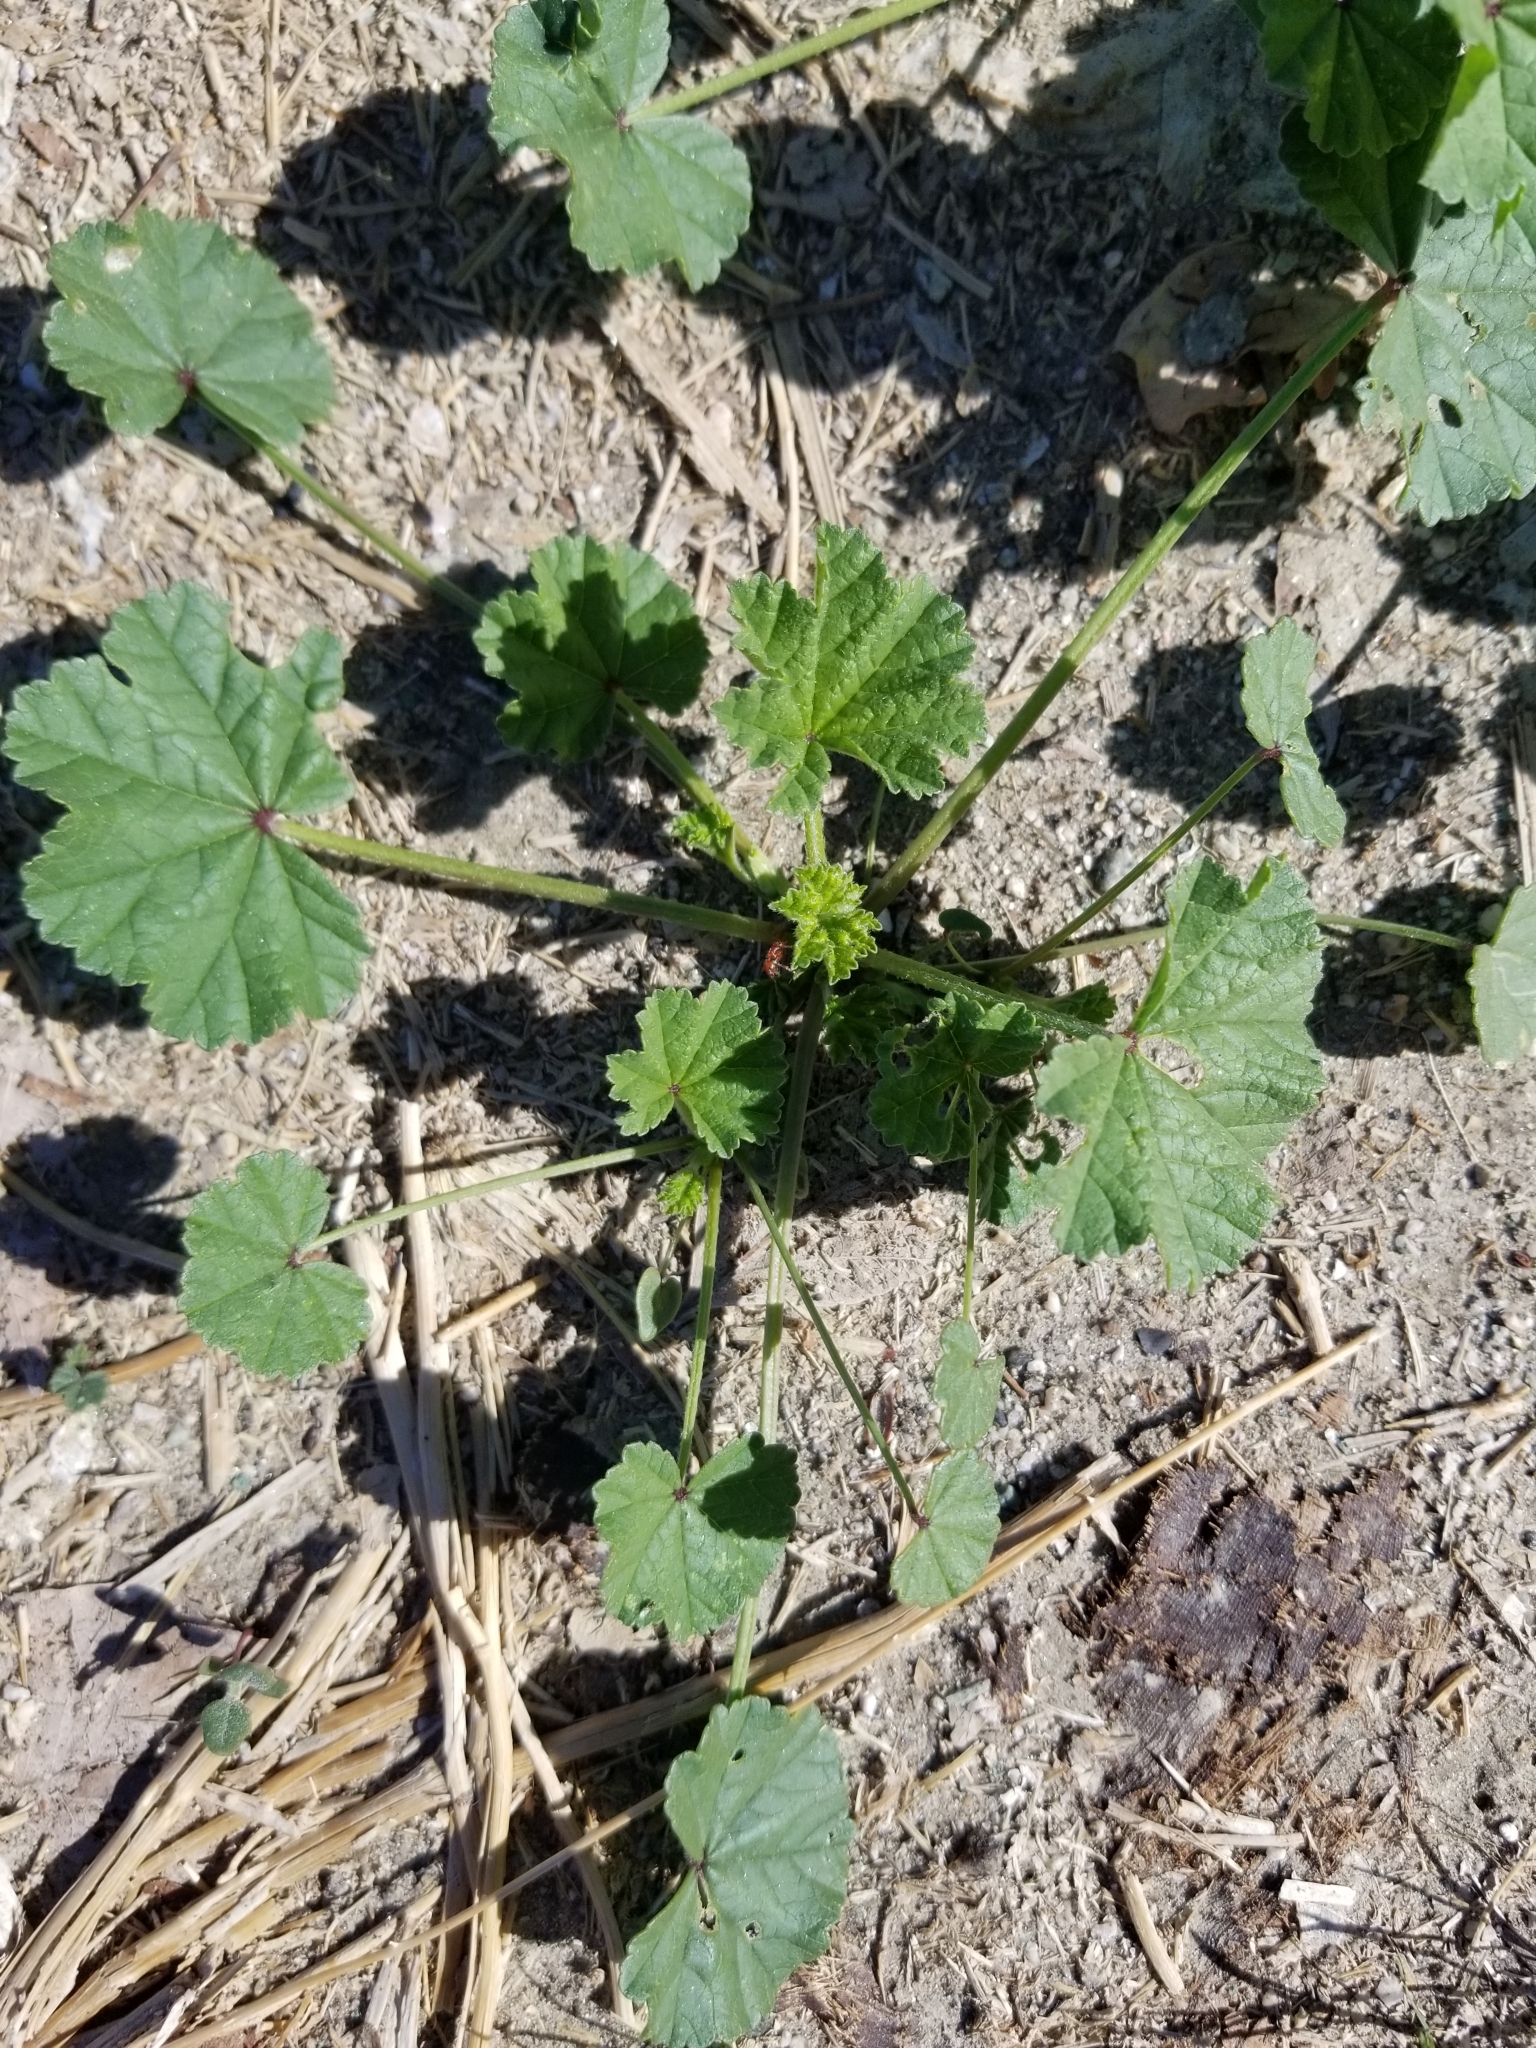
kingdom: Plantae
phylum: Tracheophyta
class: Magnoliopsida
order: Malvales
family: Malvaceae
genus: Malva
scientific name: Malva
